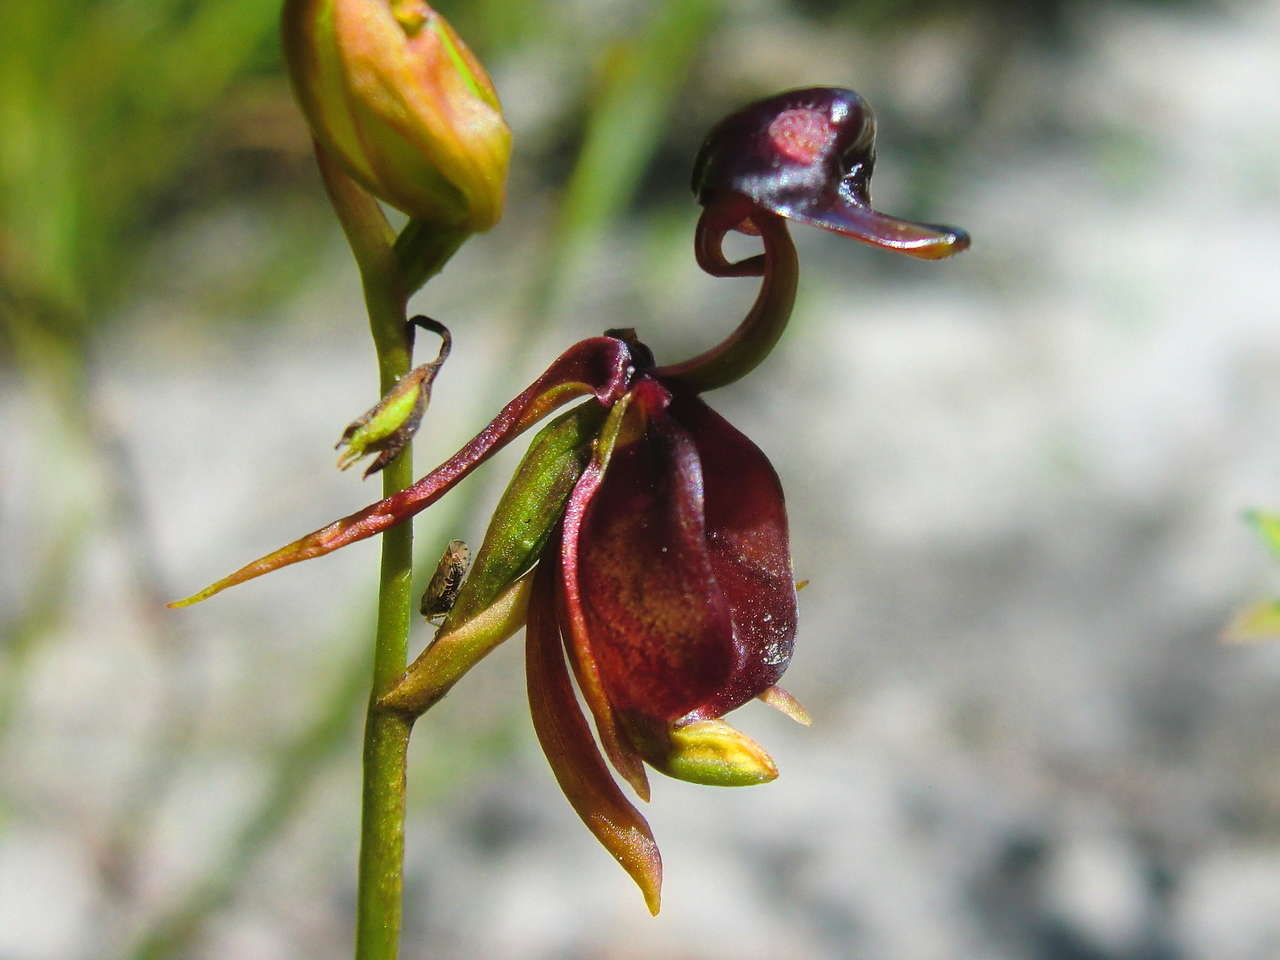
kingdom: Plantae
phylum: Tracheophyta
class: Liliopsida
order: Asparagales
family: Orchidaceae
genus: Caleana
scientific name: Caleana major
